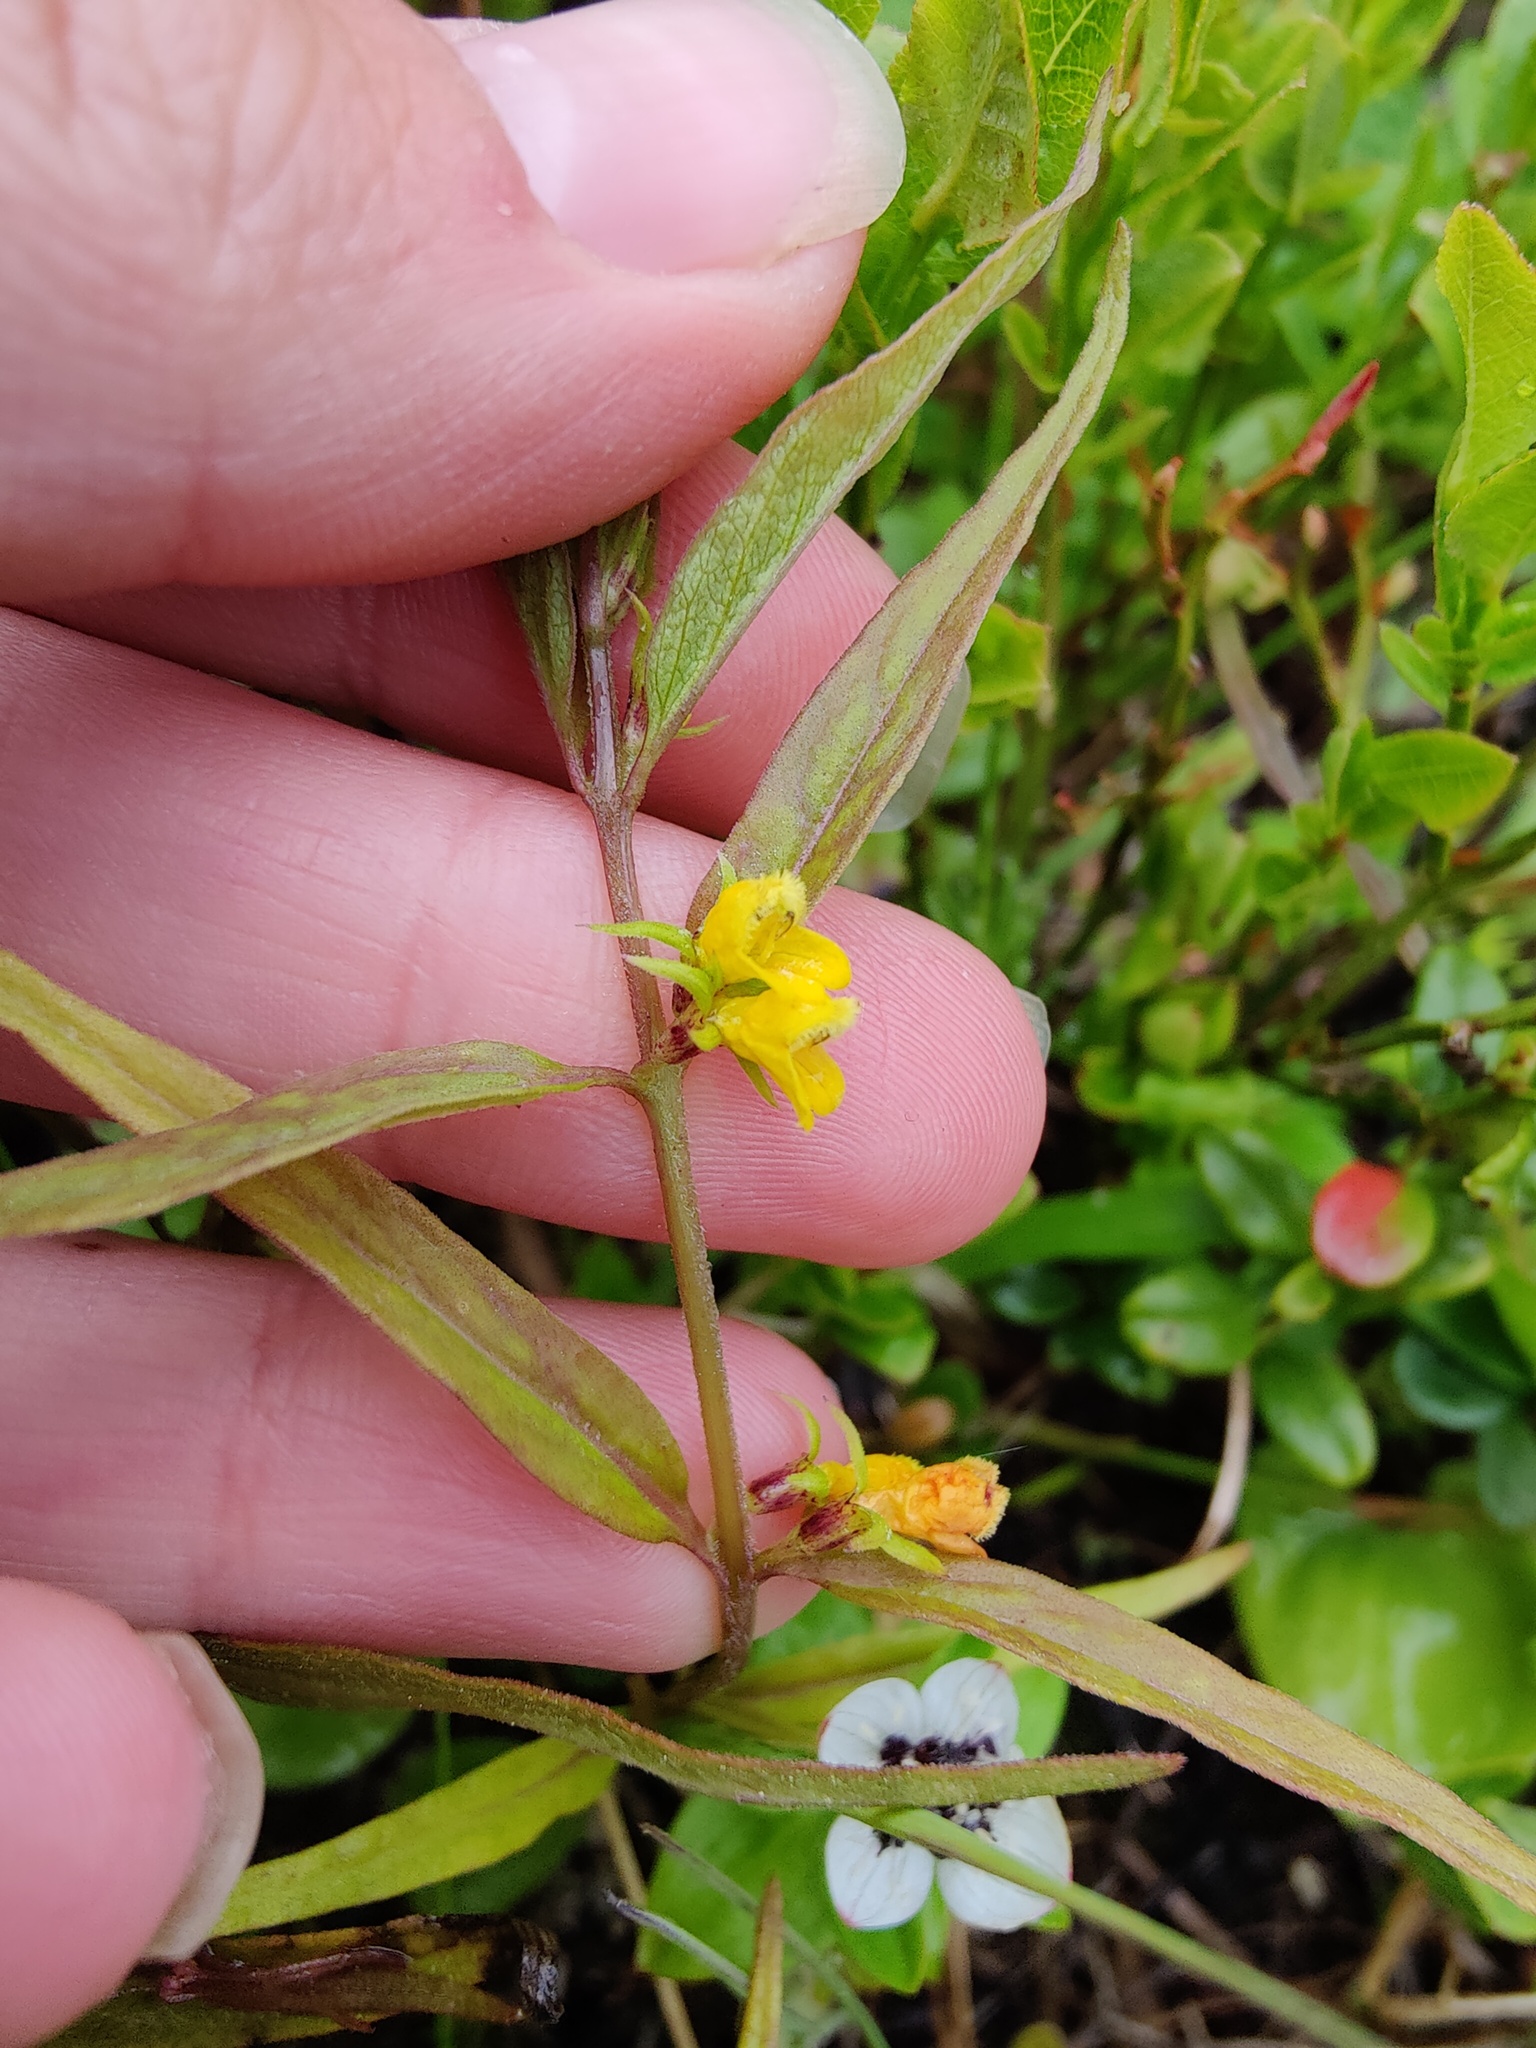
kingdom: Plantae
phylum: Tracheophyta
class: Magnoliopsida
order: Lamiales
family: Orobanchaceae
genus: Melampyrum
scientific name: Melampyrum sylvaticum
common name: Small cow-wheat
